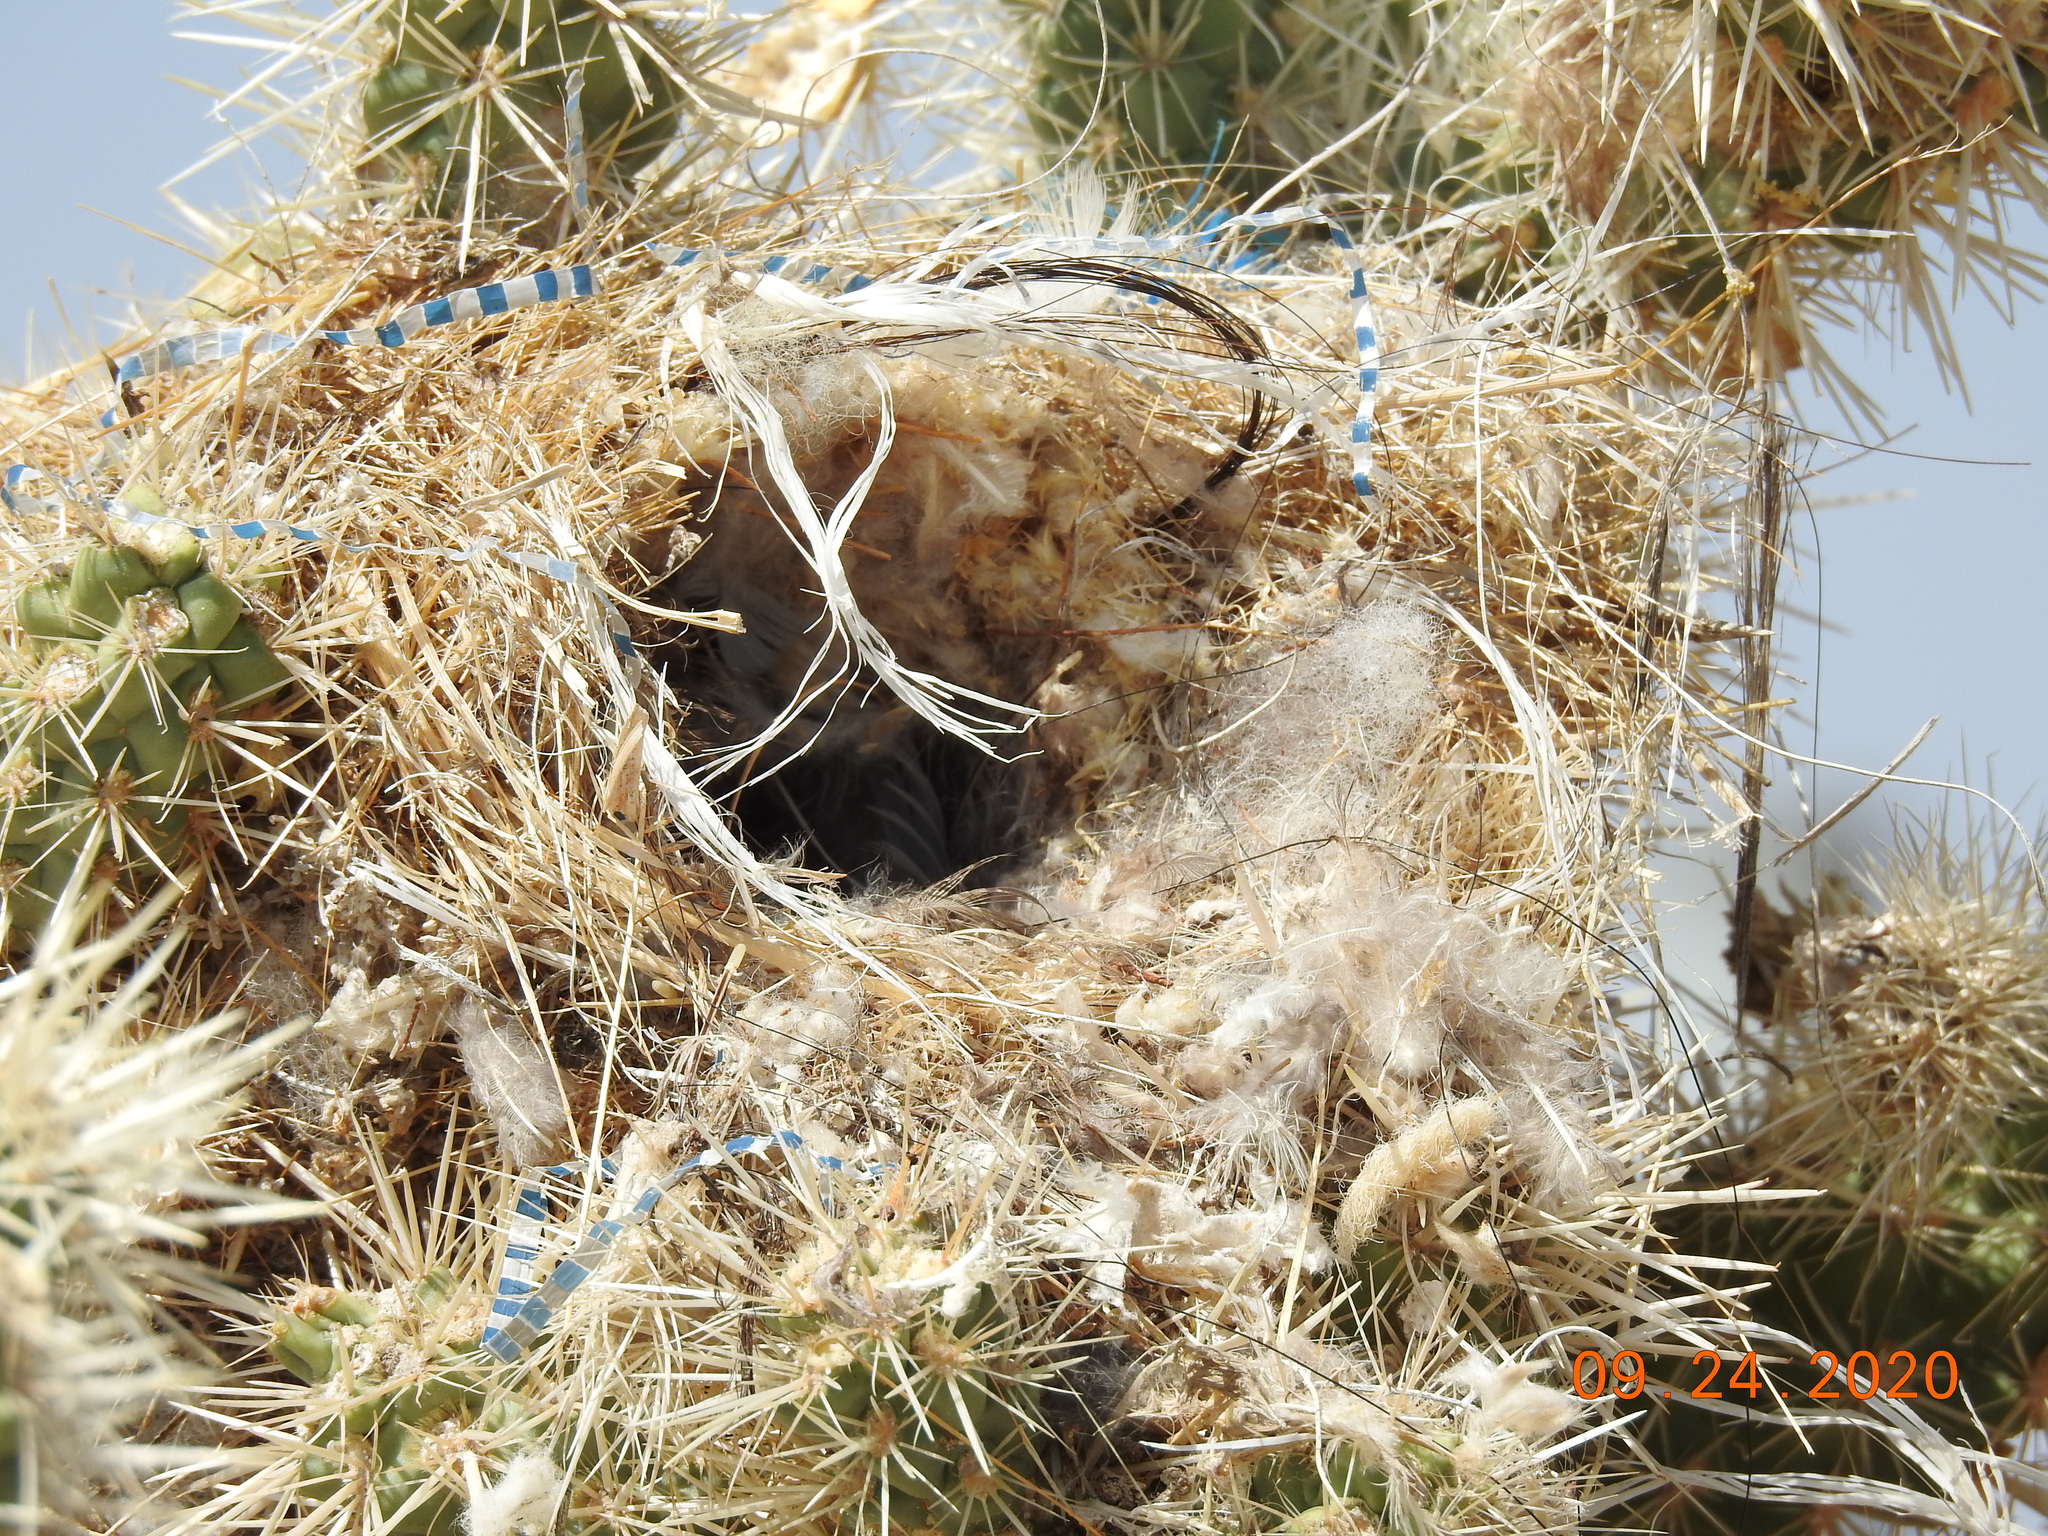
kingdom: Animalia
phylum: Chordata
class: Aves
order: Passeriformes
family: Troglodytidae
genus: Campylorhynchus
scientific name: Campylorhynchus brunneicapillus
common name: Cactus wren
